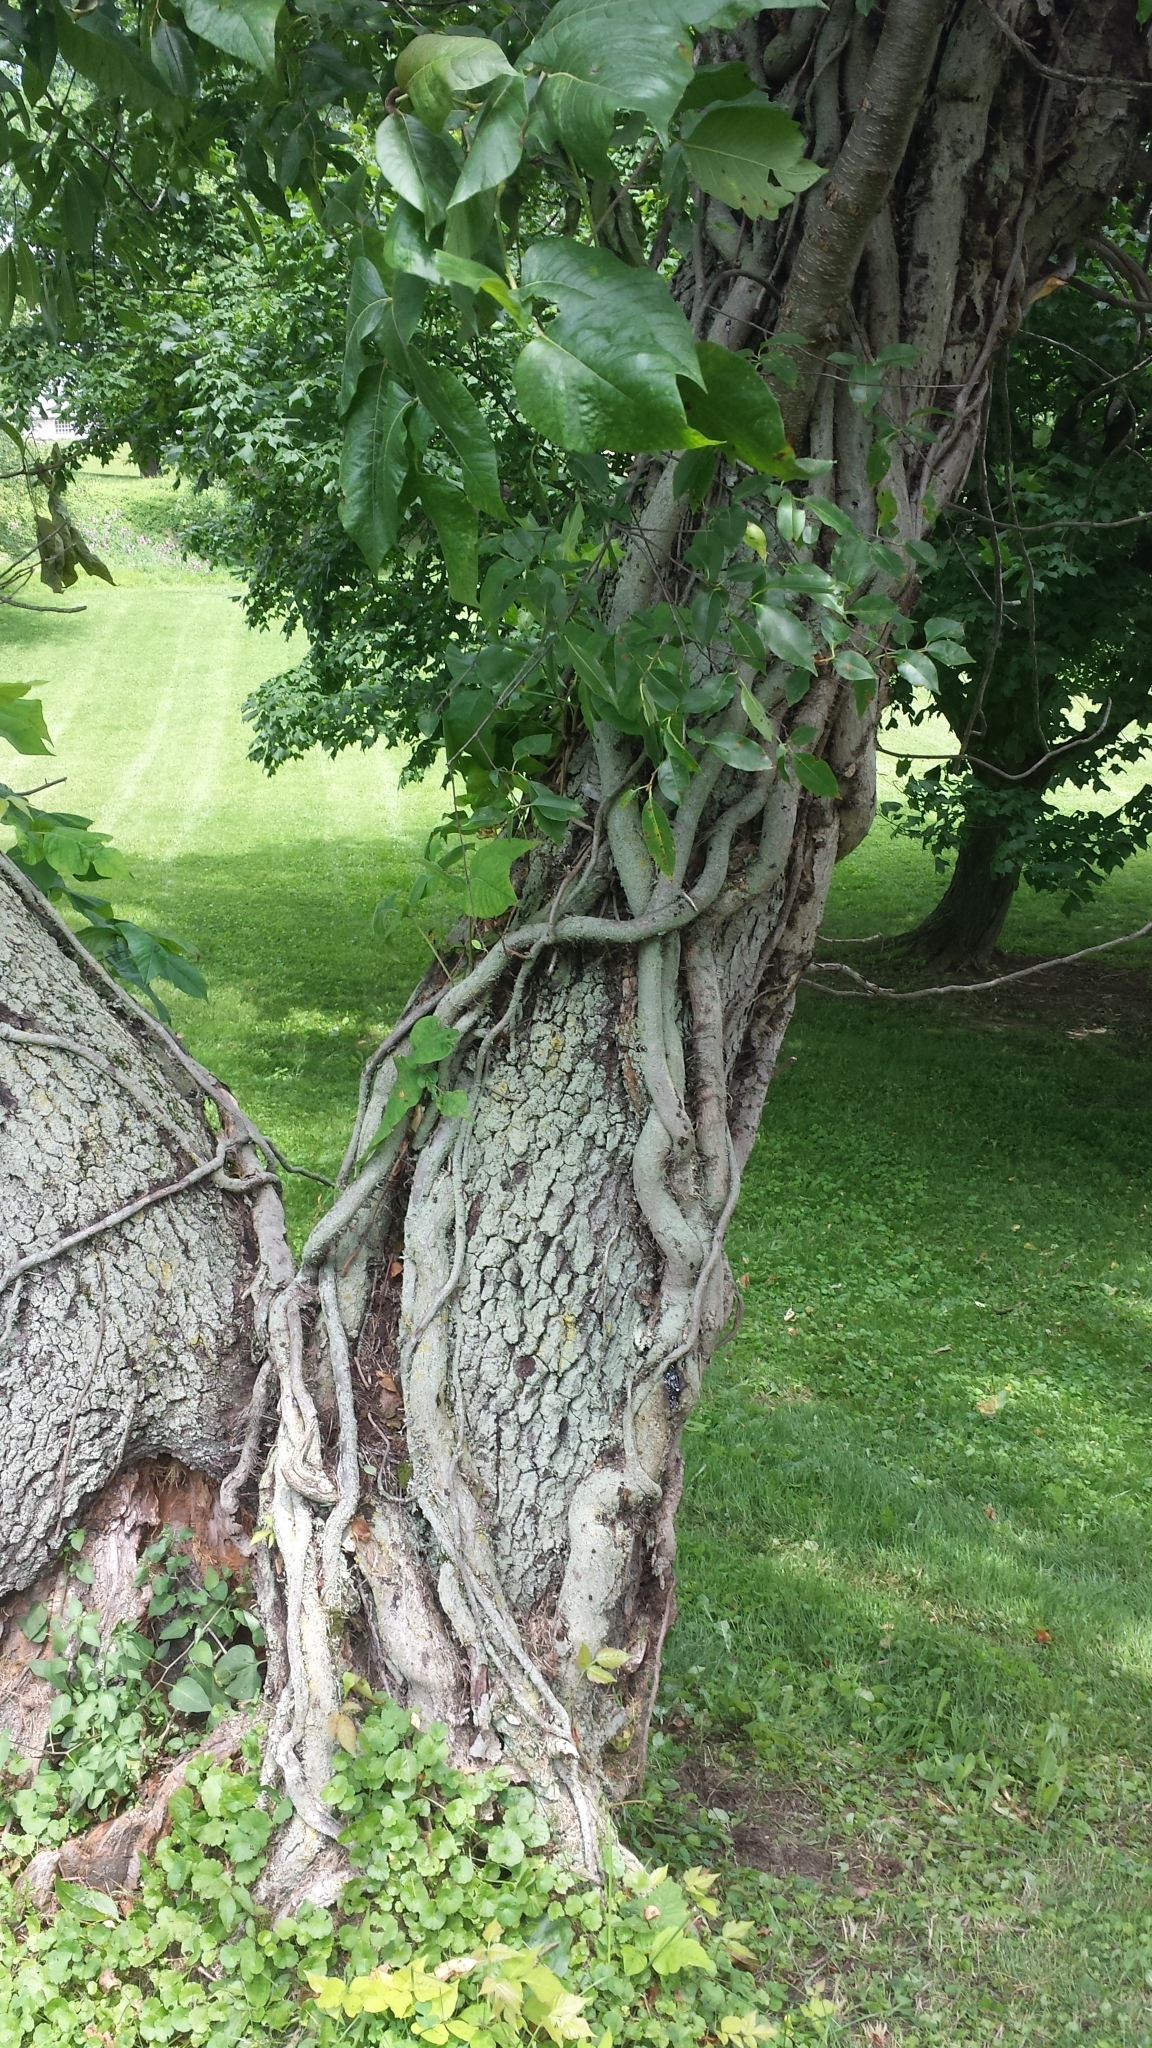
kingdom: Plantae
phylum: Tracheophyta
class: Magnoliopsida
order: Sapindales
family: Anacardiaceae
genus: Toxicodendron
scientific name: Toxicodendron radicans
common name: Poison ivy
